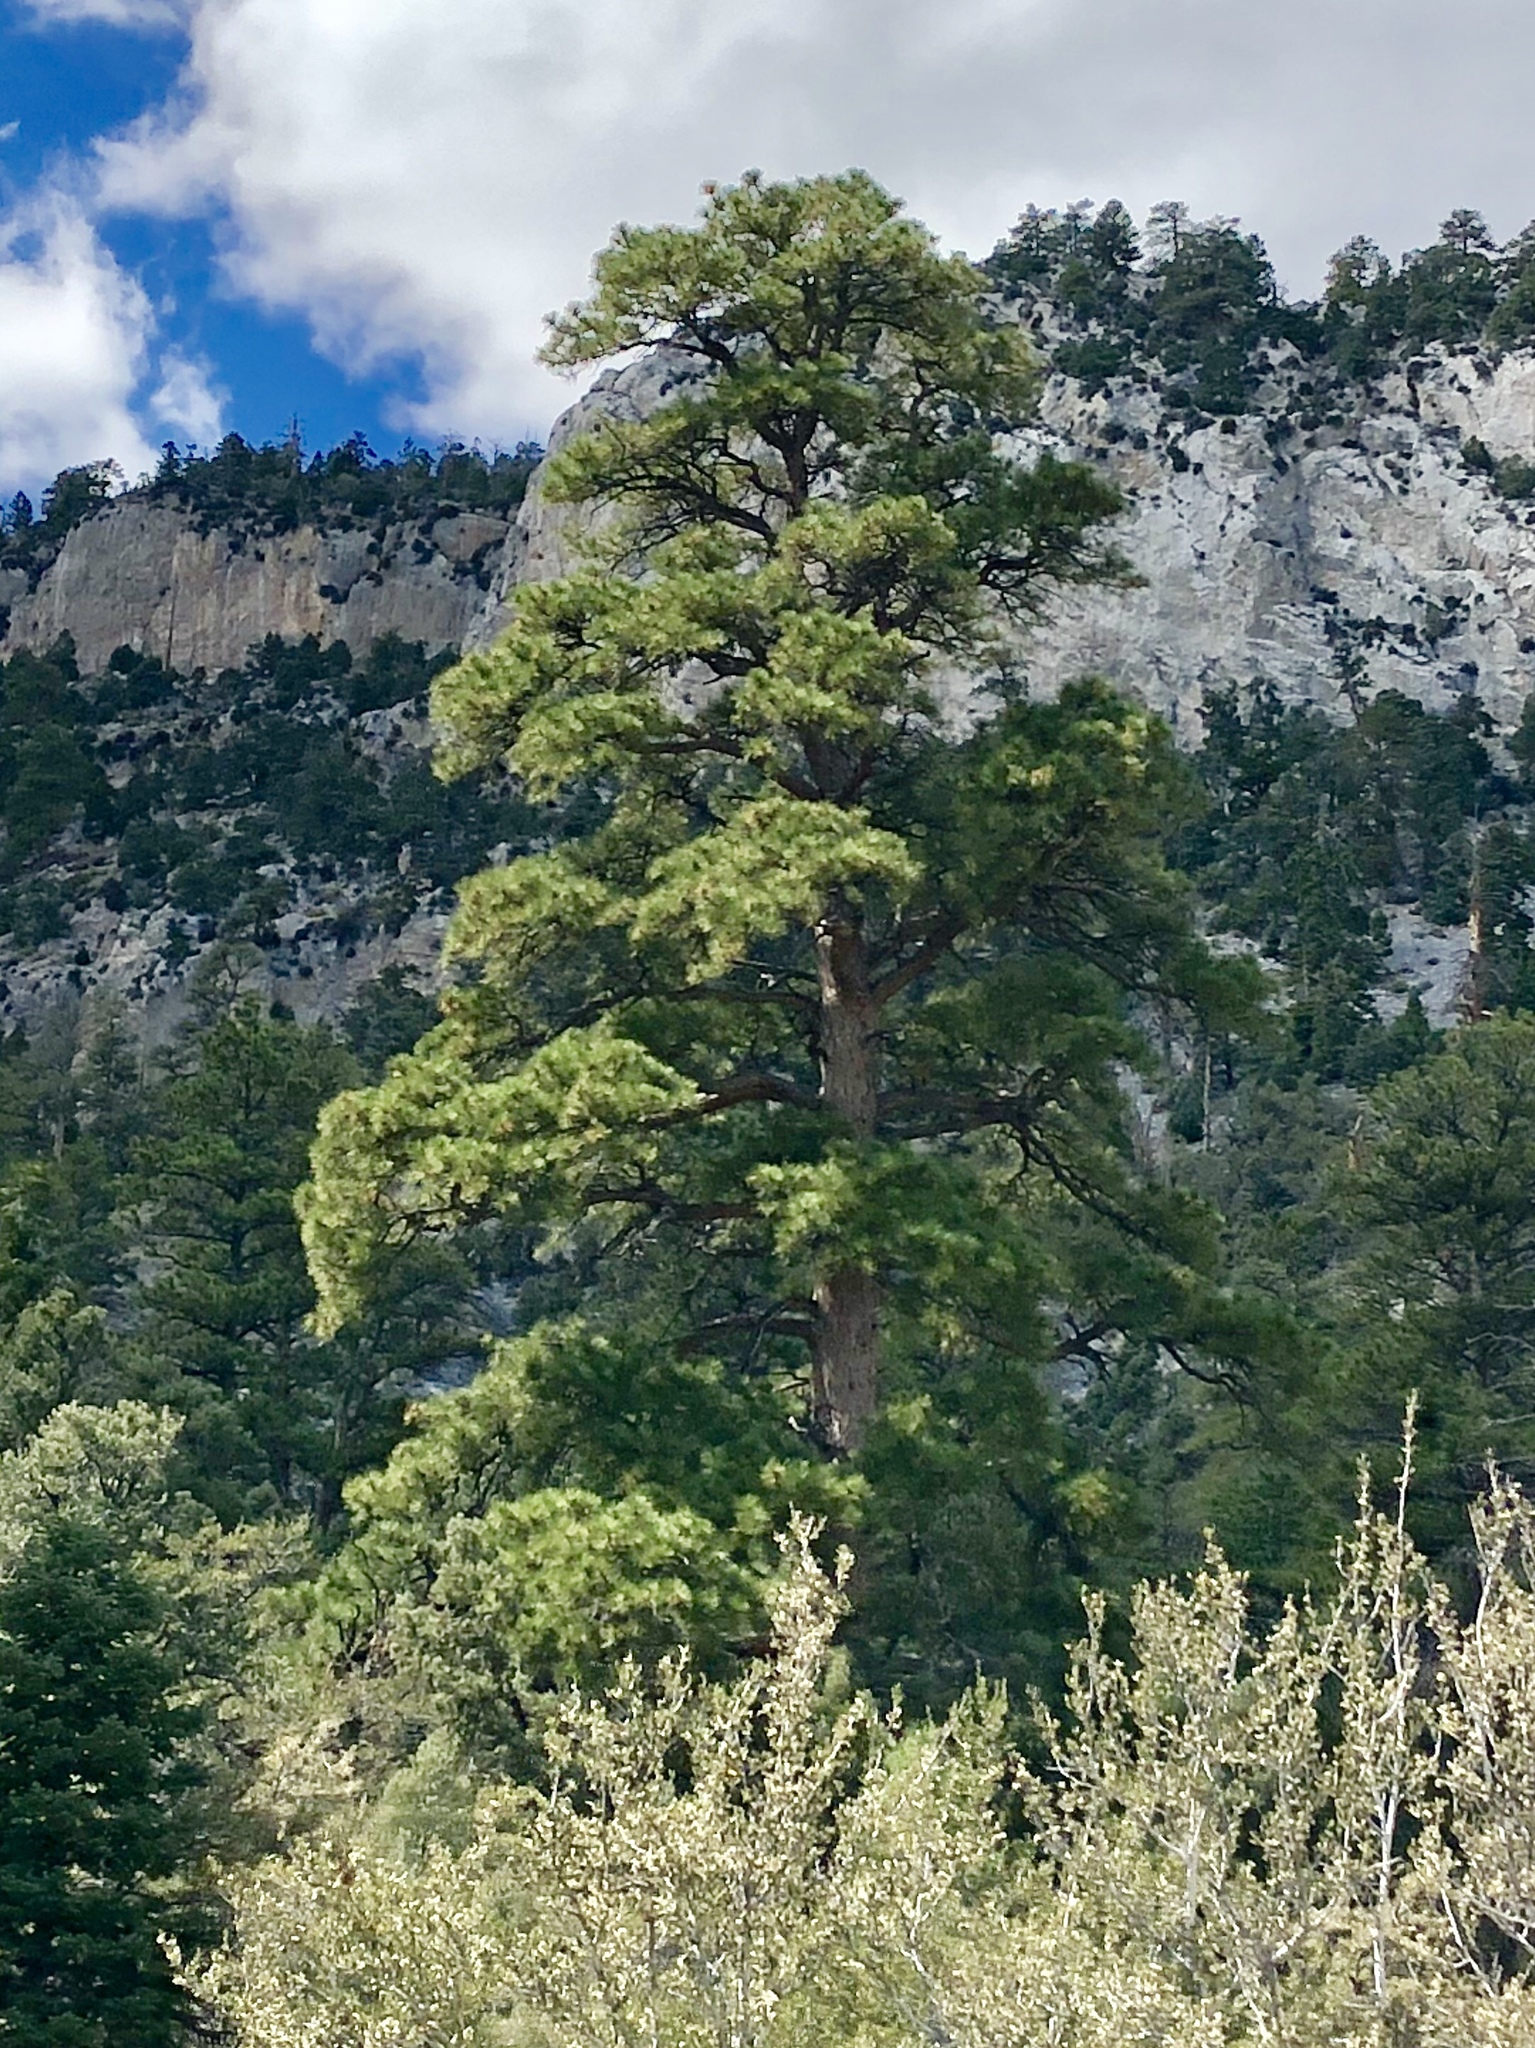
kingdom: Plantae
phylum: Tracheophyta
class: Pinopsida
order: Pinales
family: Pinaceae
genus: Pinus
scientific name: Pinus ponderosa
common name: Western yellow-pine
